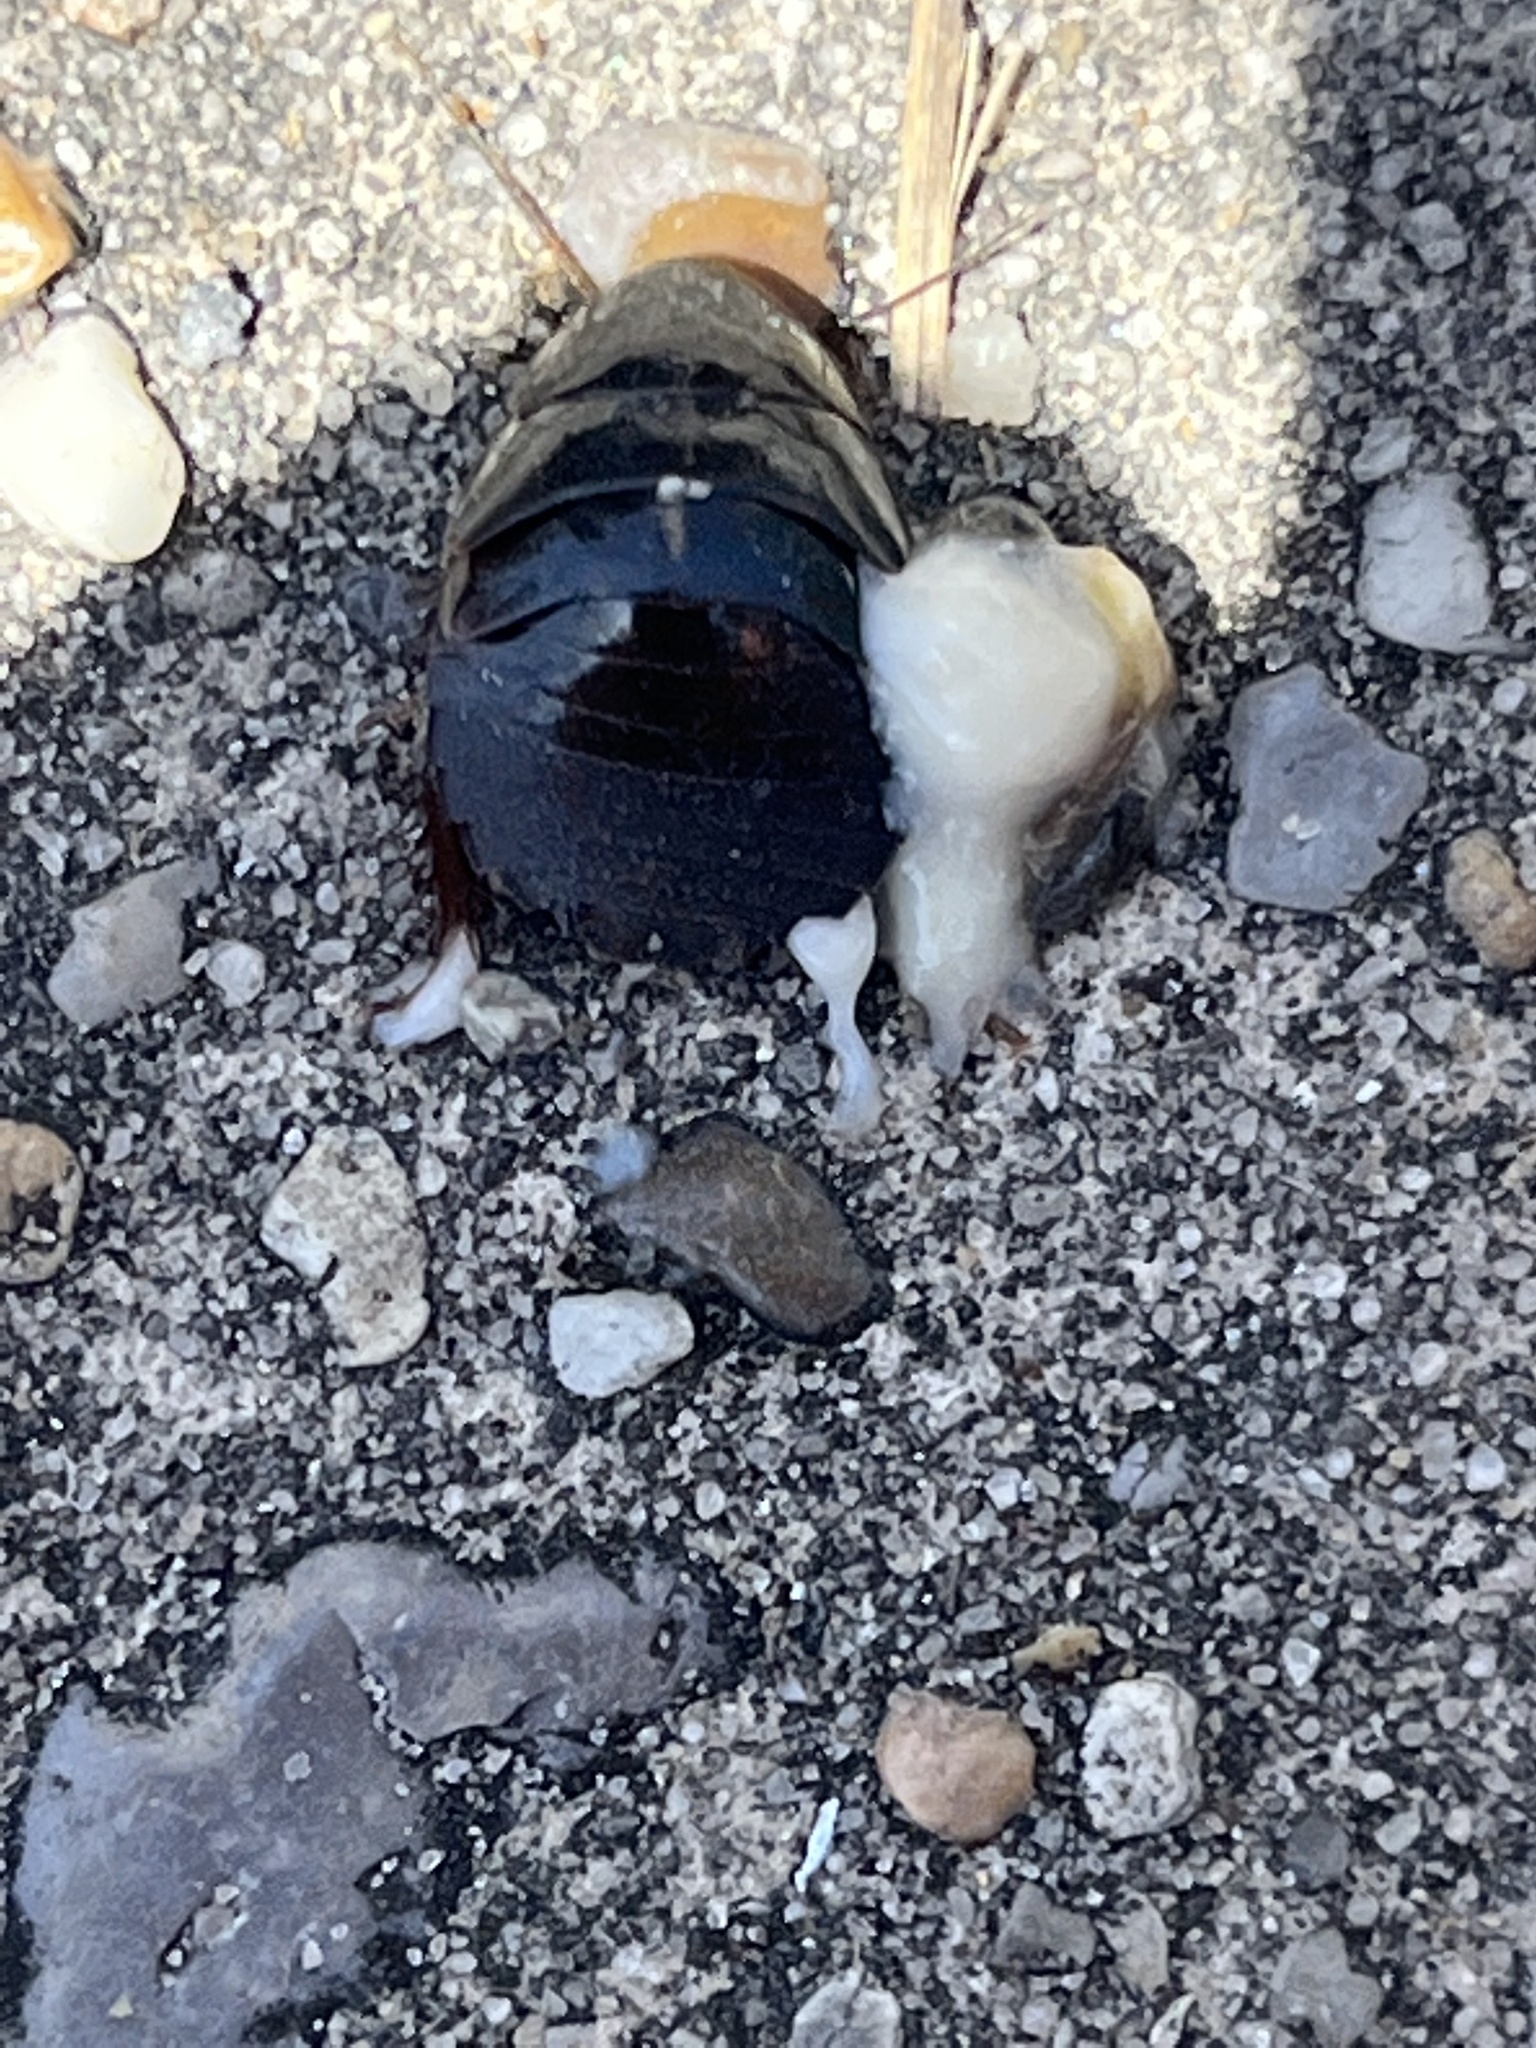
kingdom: Animalia
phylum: Arthropoda
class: Insecta
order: Blattodea
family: Blaberidae
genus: Pycnoscelus
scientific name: Pycnoscelus surinamensis
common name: Surinam cockroach
